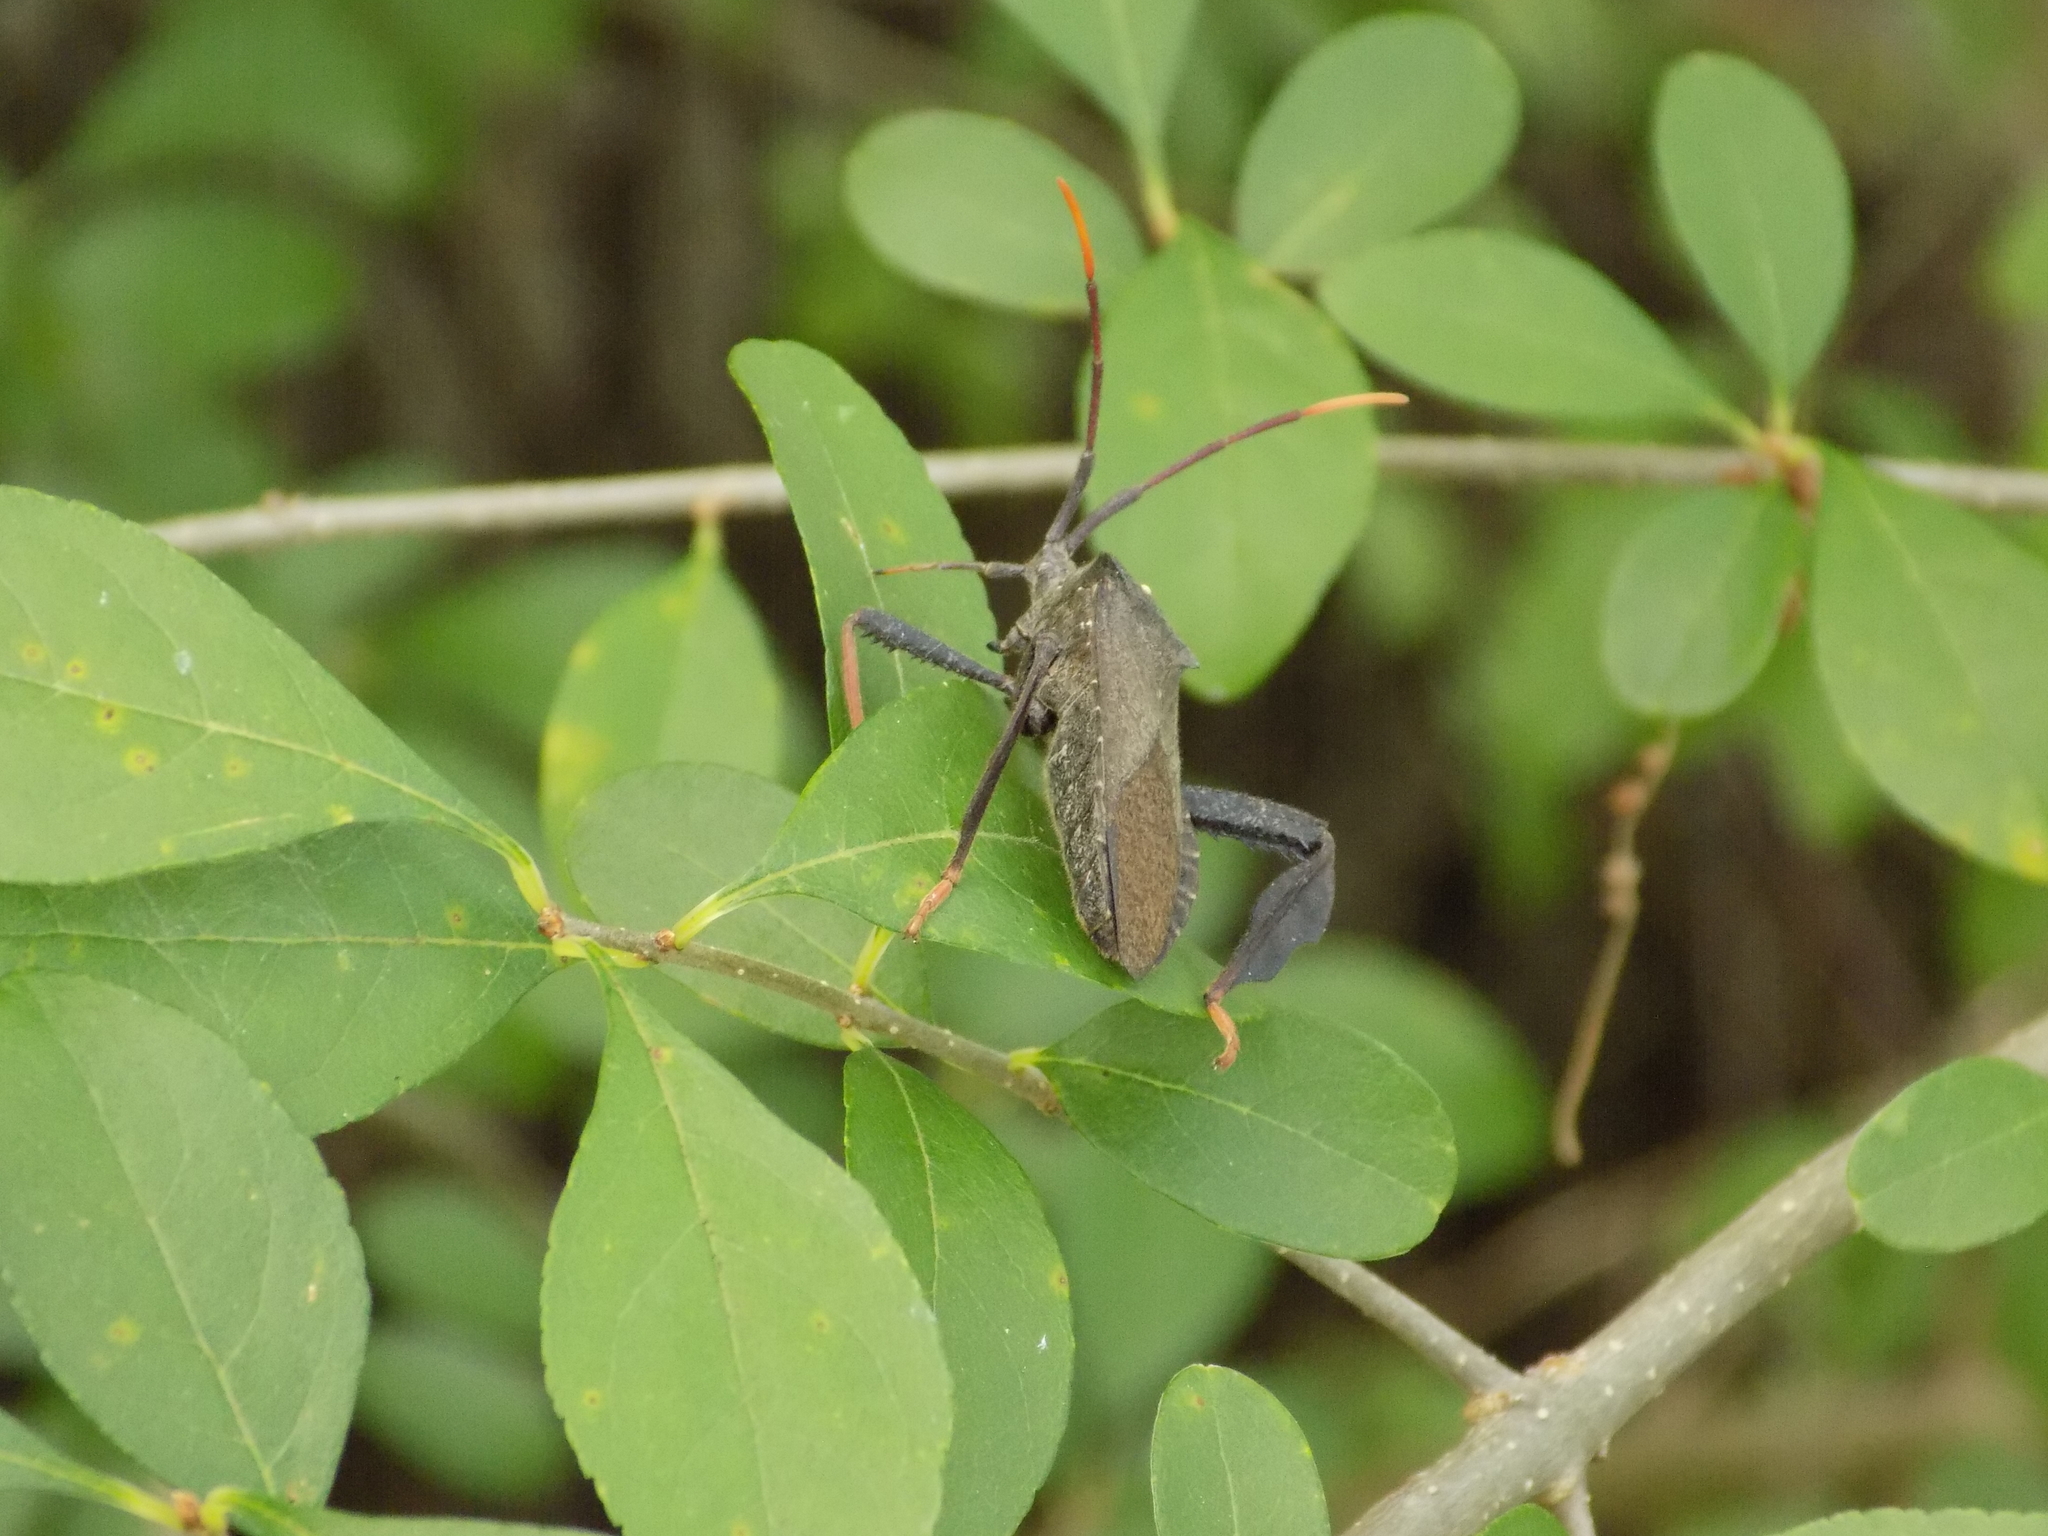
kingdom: Animalia
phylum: Arthropoda
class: Insecta
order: Hemiptera
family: Coreidae
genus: Acanthocephala
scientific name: Acanthocephala terminalis
